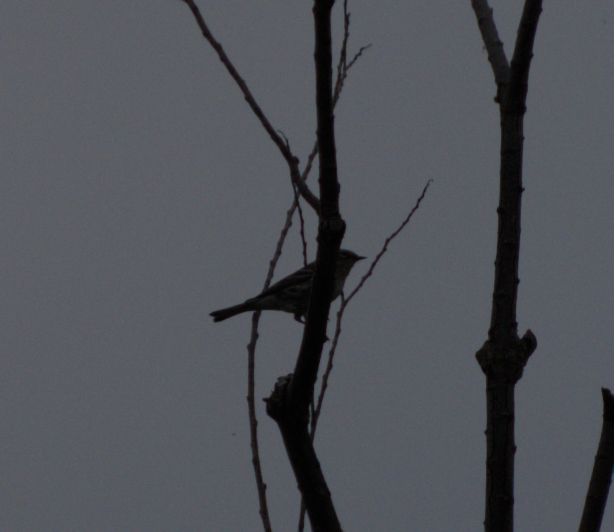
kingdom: Animalia
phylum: Chordata
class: Aves
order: Passeriformes
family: Parulidae
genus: Setophaga
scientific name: Setophaga coronata
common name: Myrtle warbler
